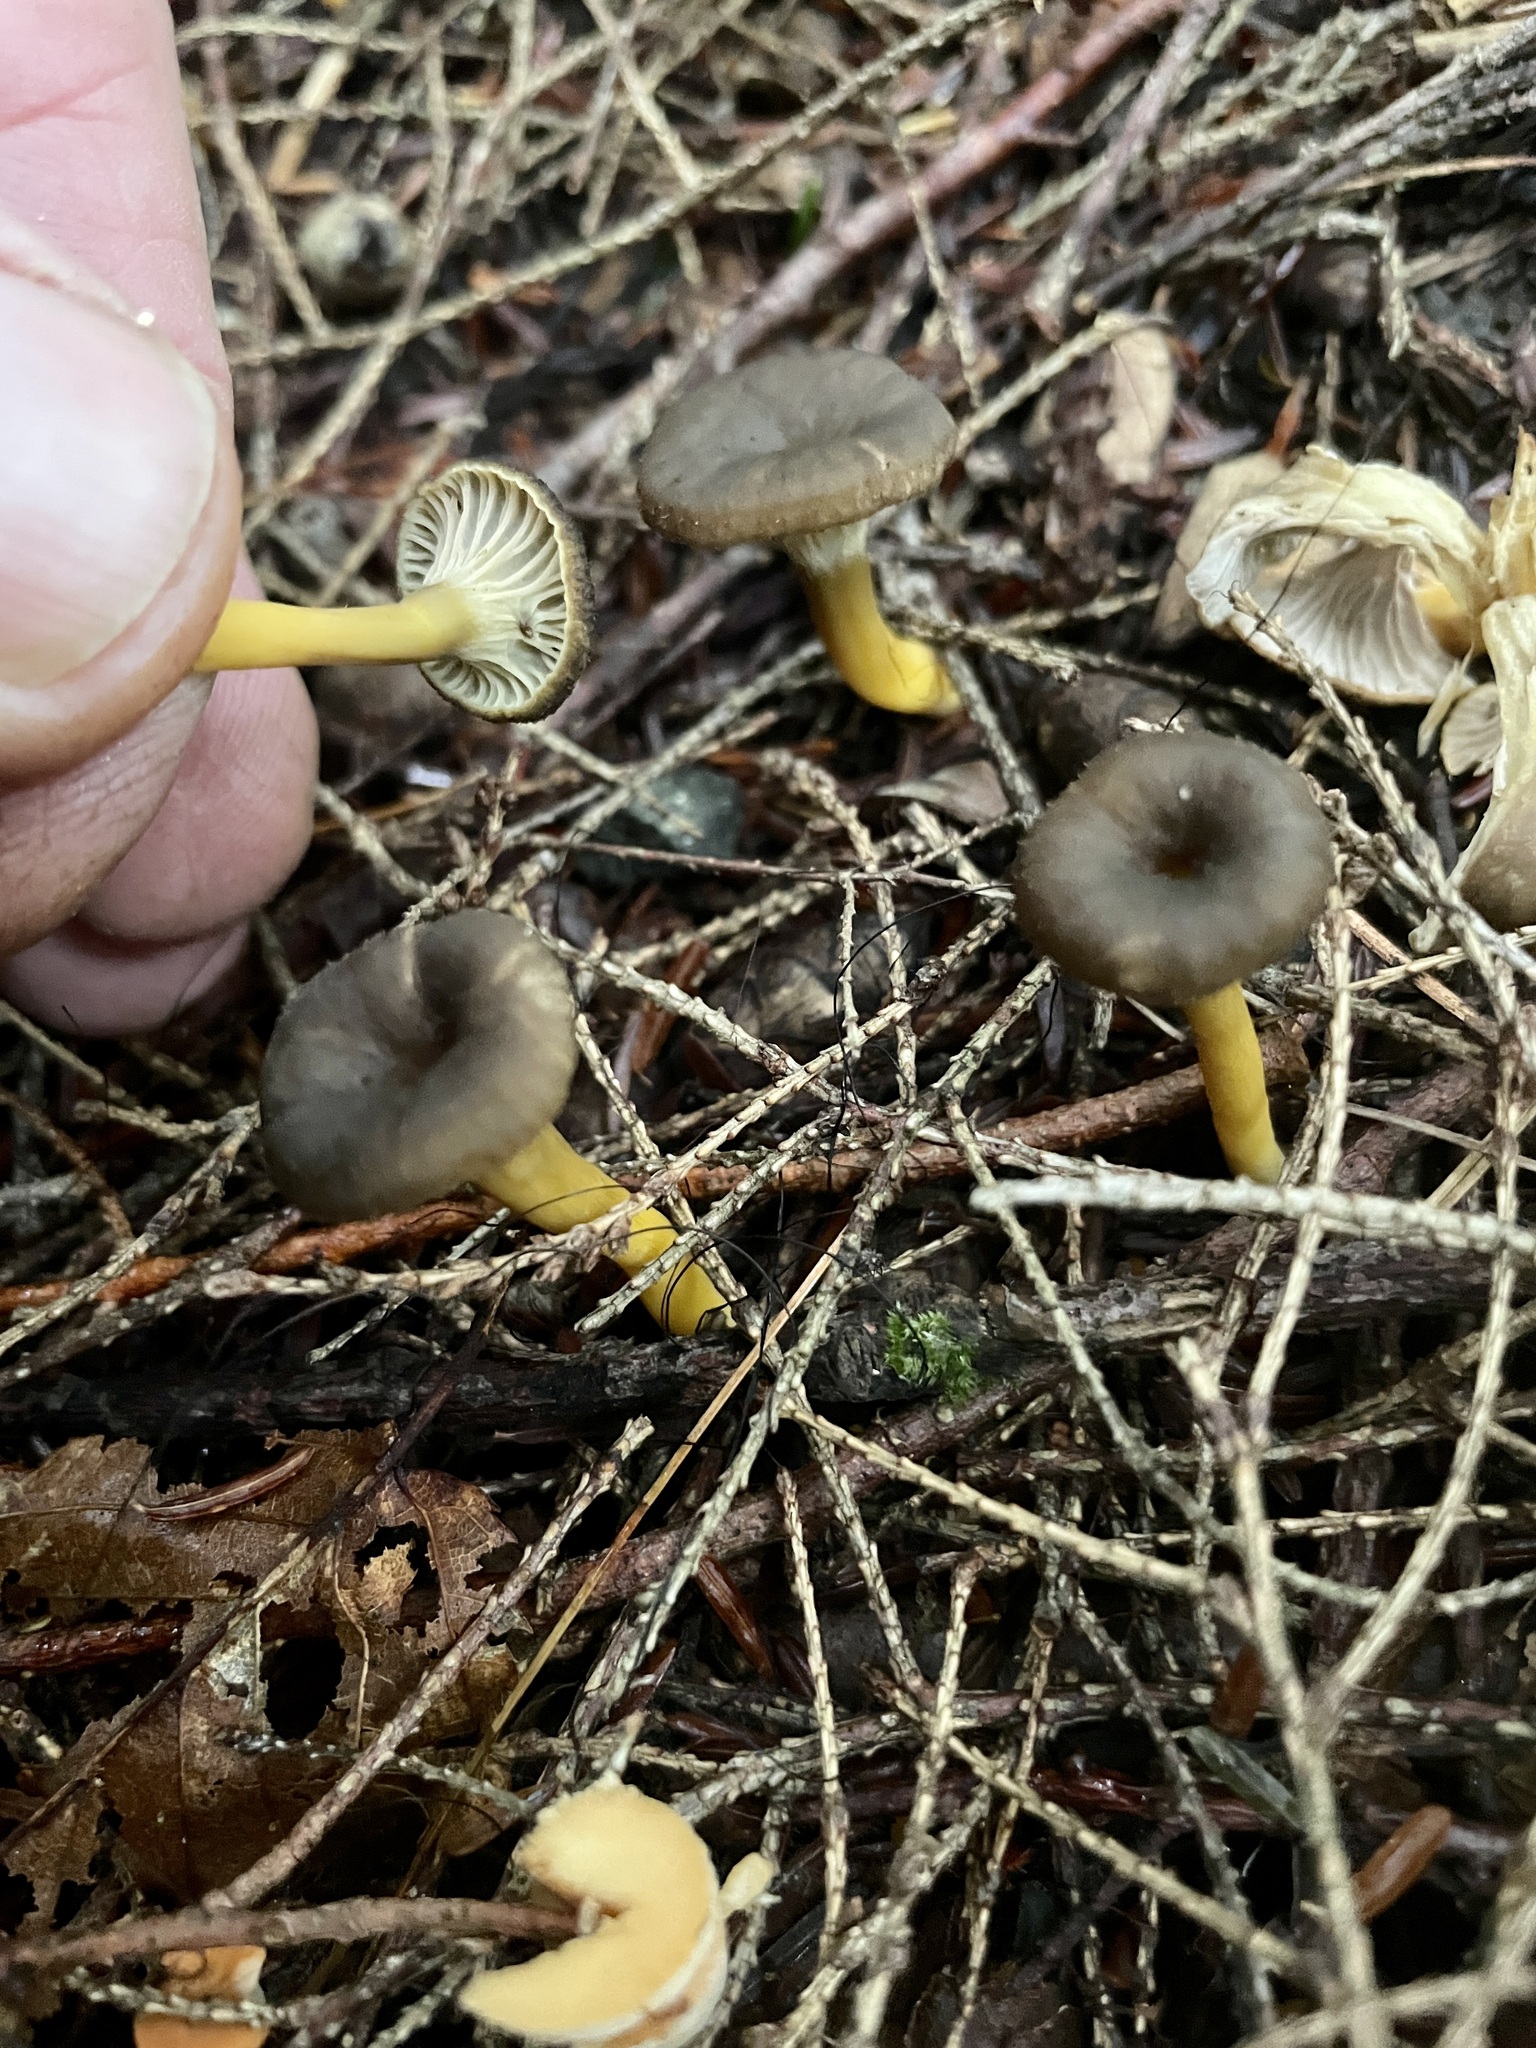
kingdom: Fungi
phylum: Basidiomycota
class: Agaricomycetes
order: Cantharellales
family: Hydnaceae
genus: Craterellus
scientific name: Craterellus tubaeformis
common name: Yellowfoot
